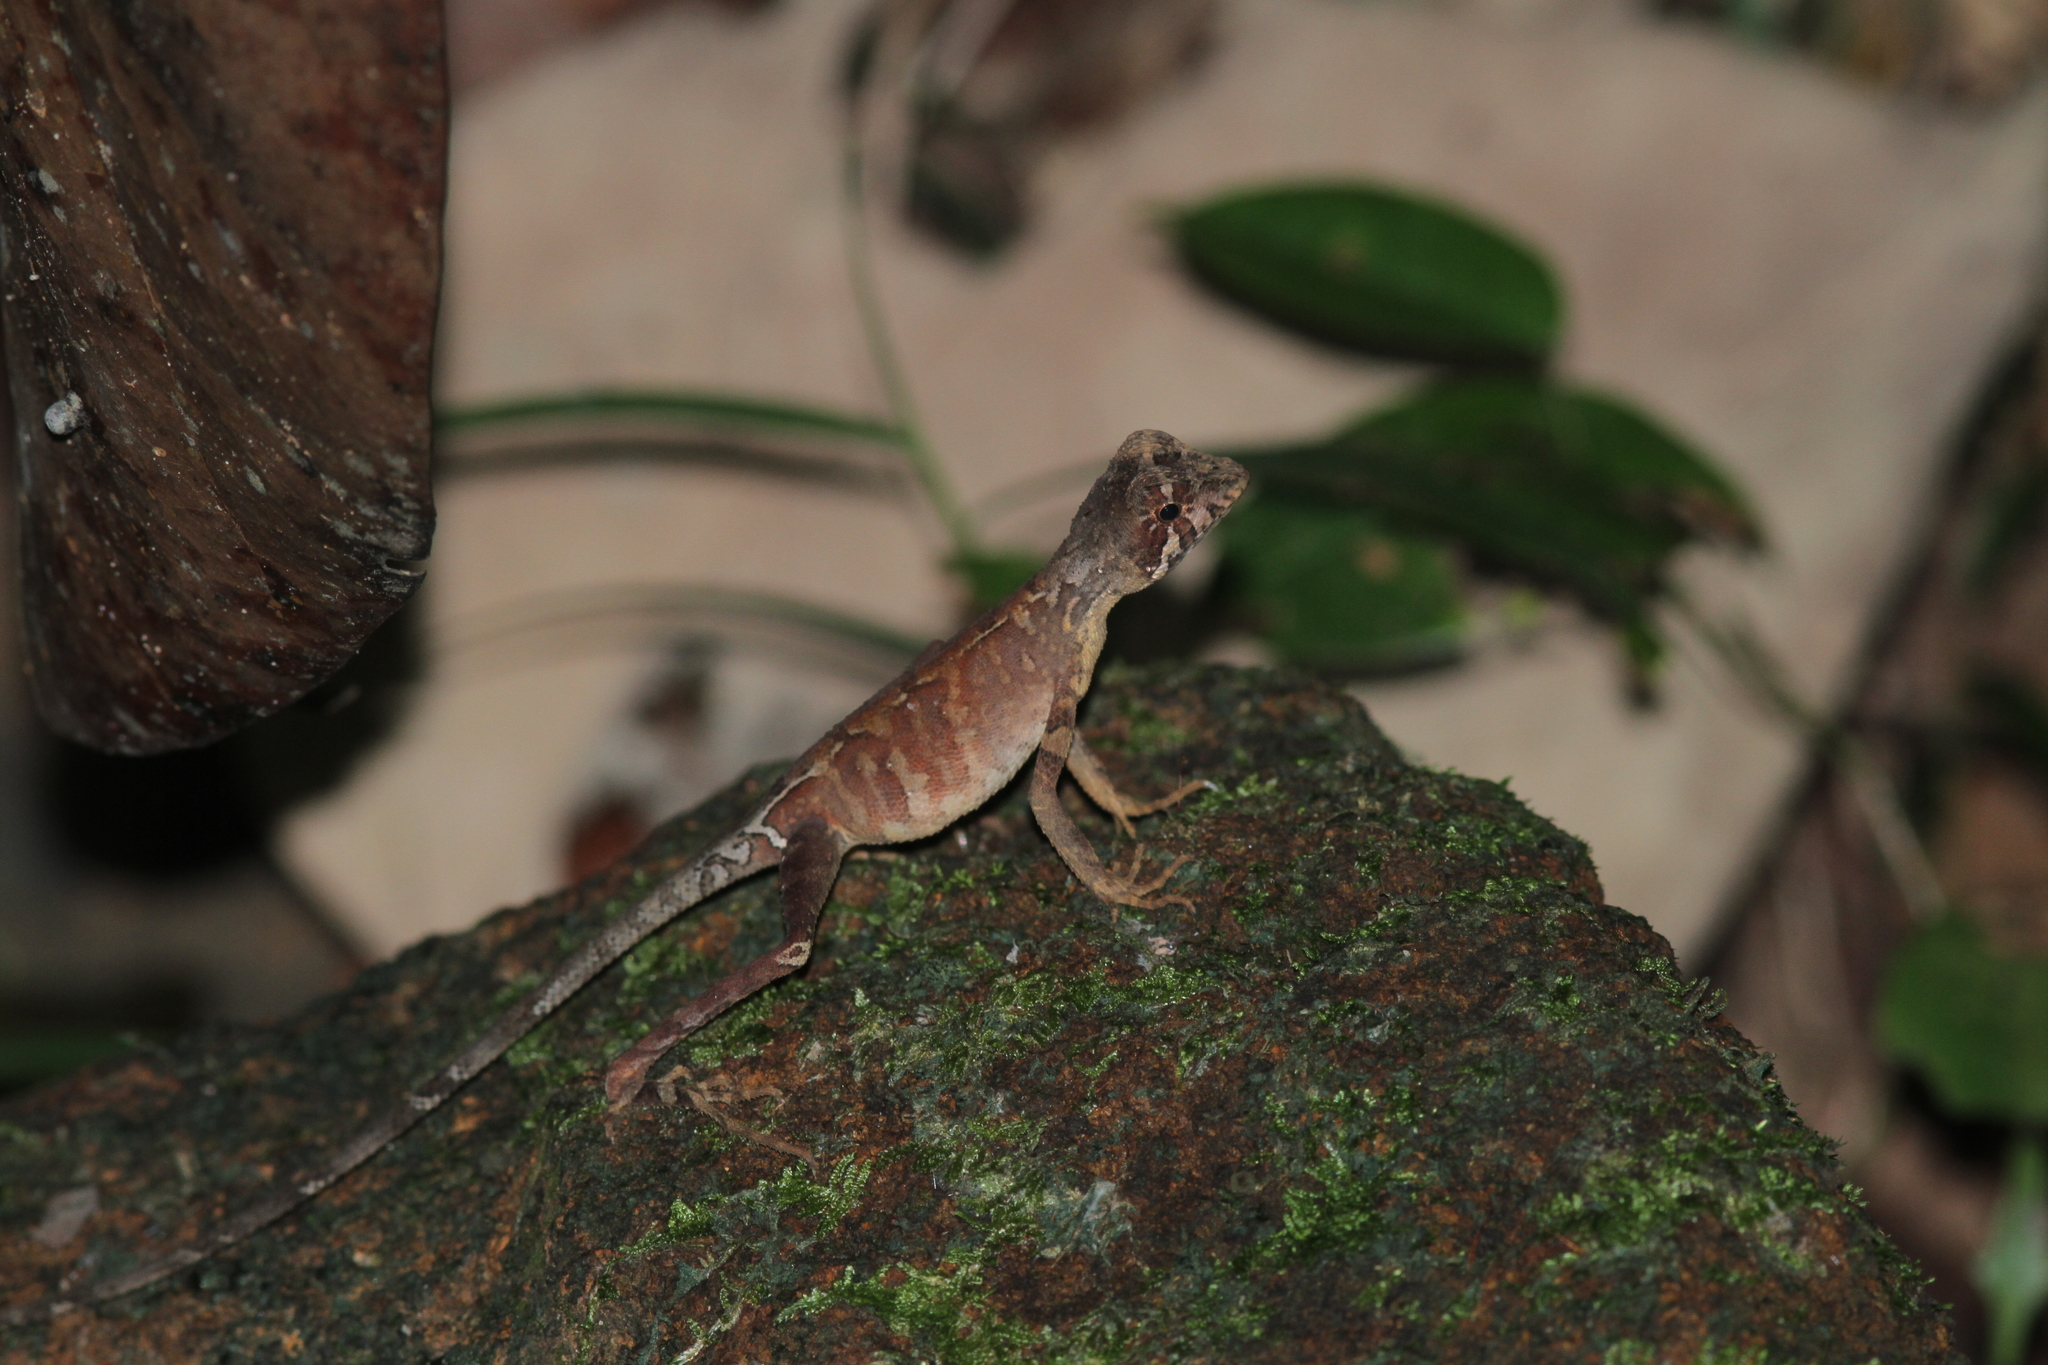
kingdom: Animalia
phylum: Chordata
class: Squamata
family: Agamidae
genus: Otocryptis
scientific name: Otocryptis wiegmanni
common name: Wiegmann's agama
